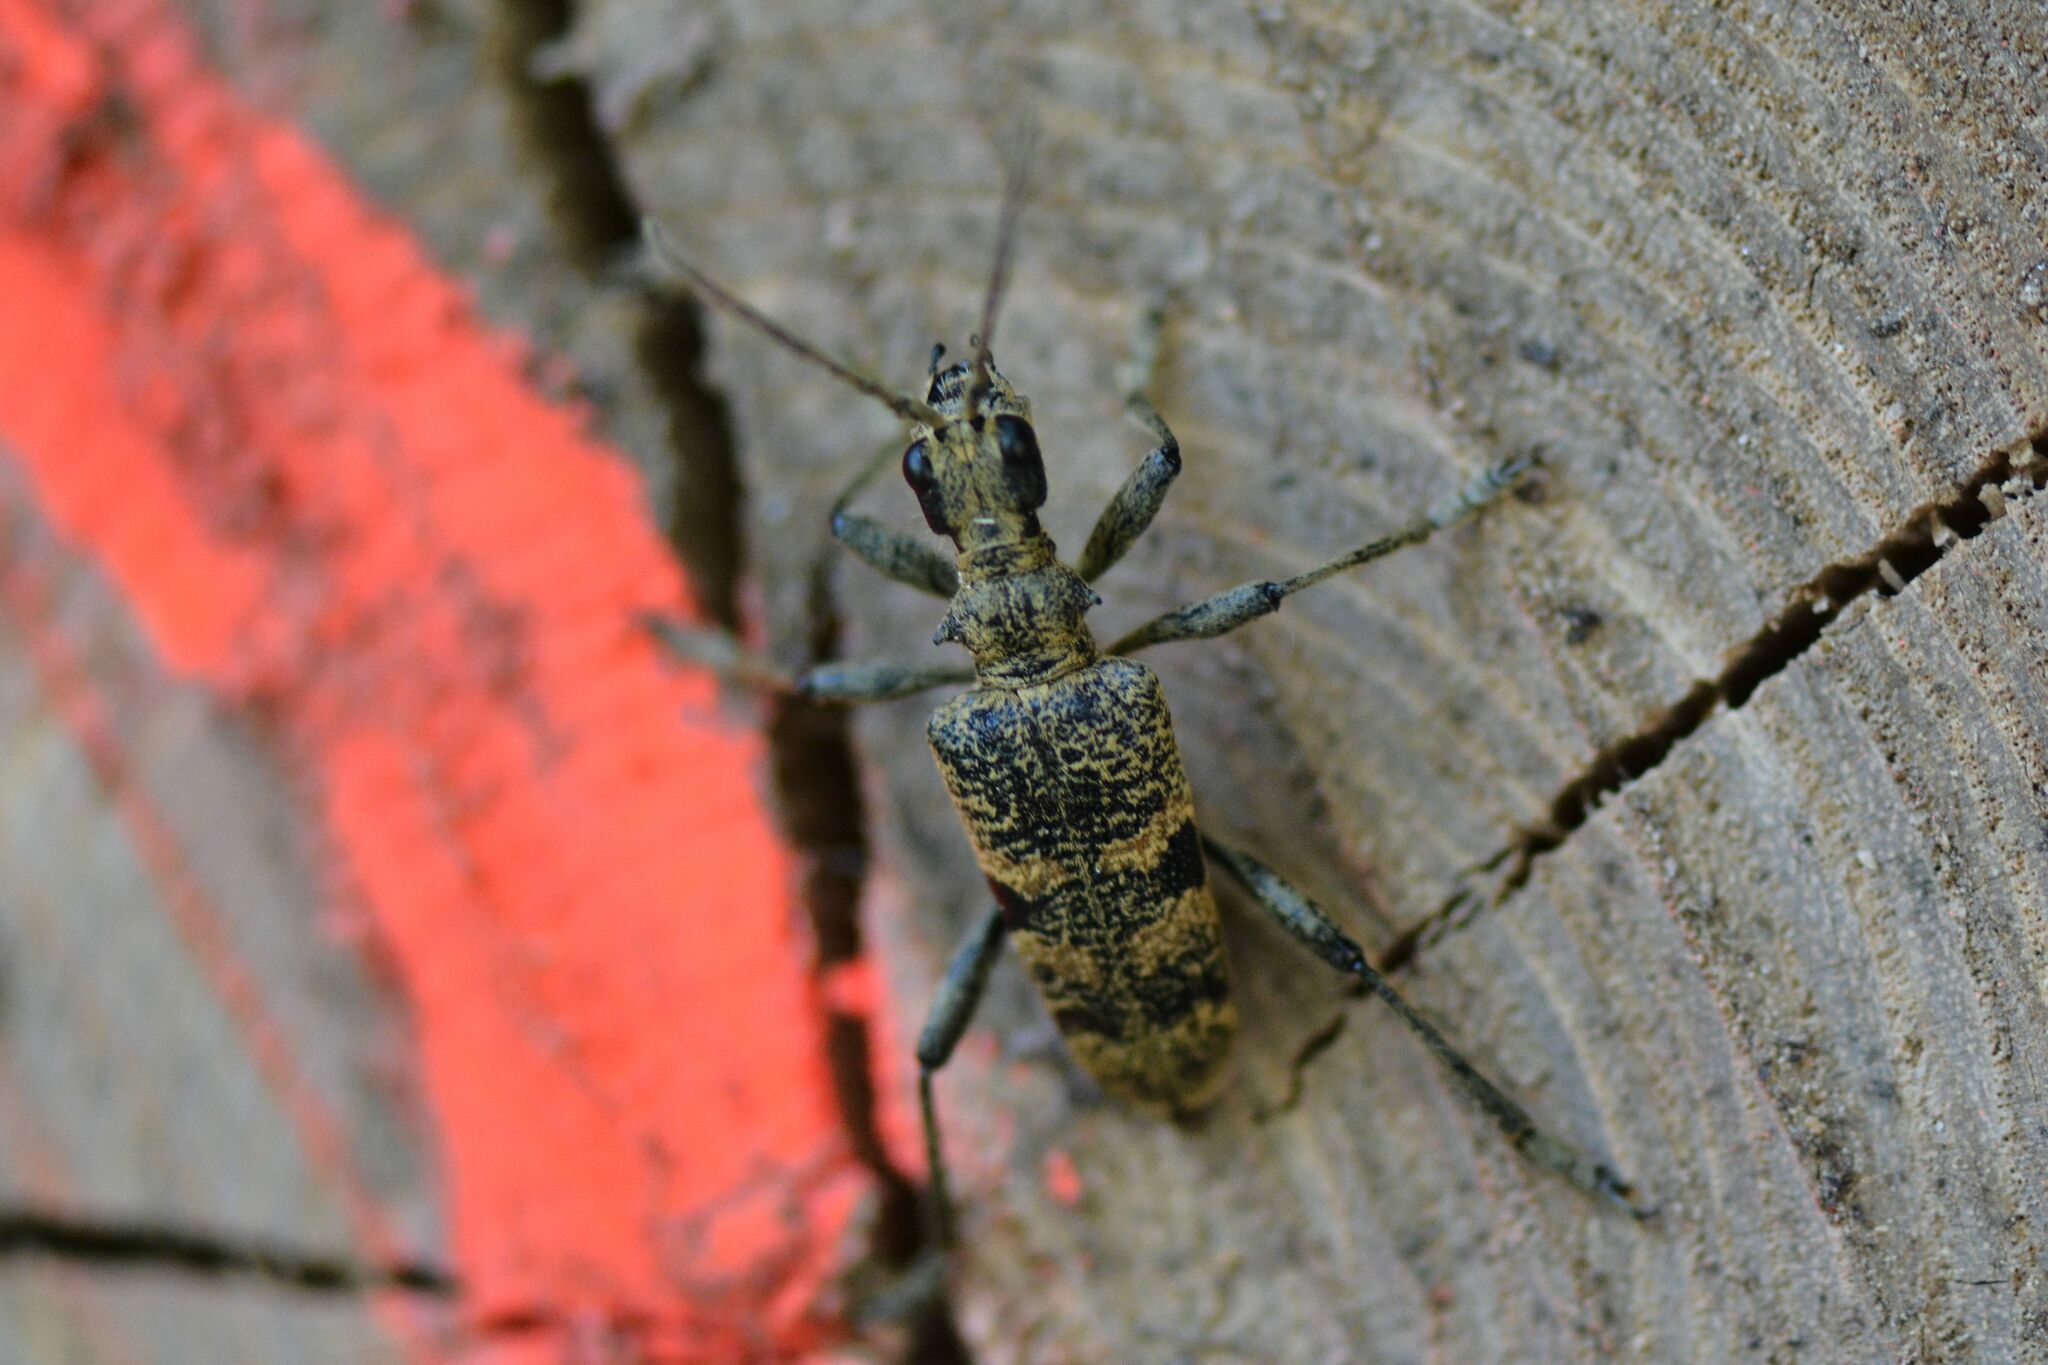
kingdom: Animalia
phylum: Arthropoda
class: Insecta
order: Coleoptera
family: Cerambycidae
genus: Rhagium
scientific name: Rhagium mordax
